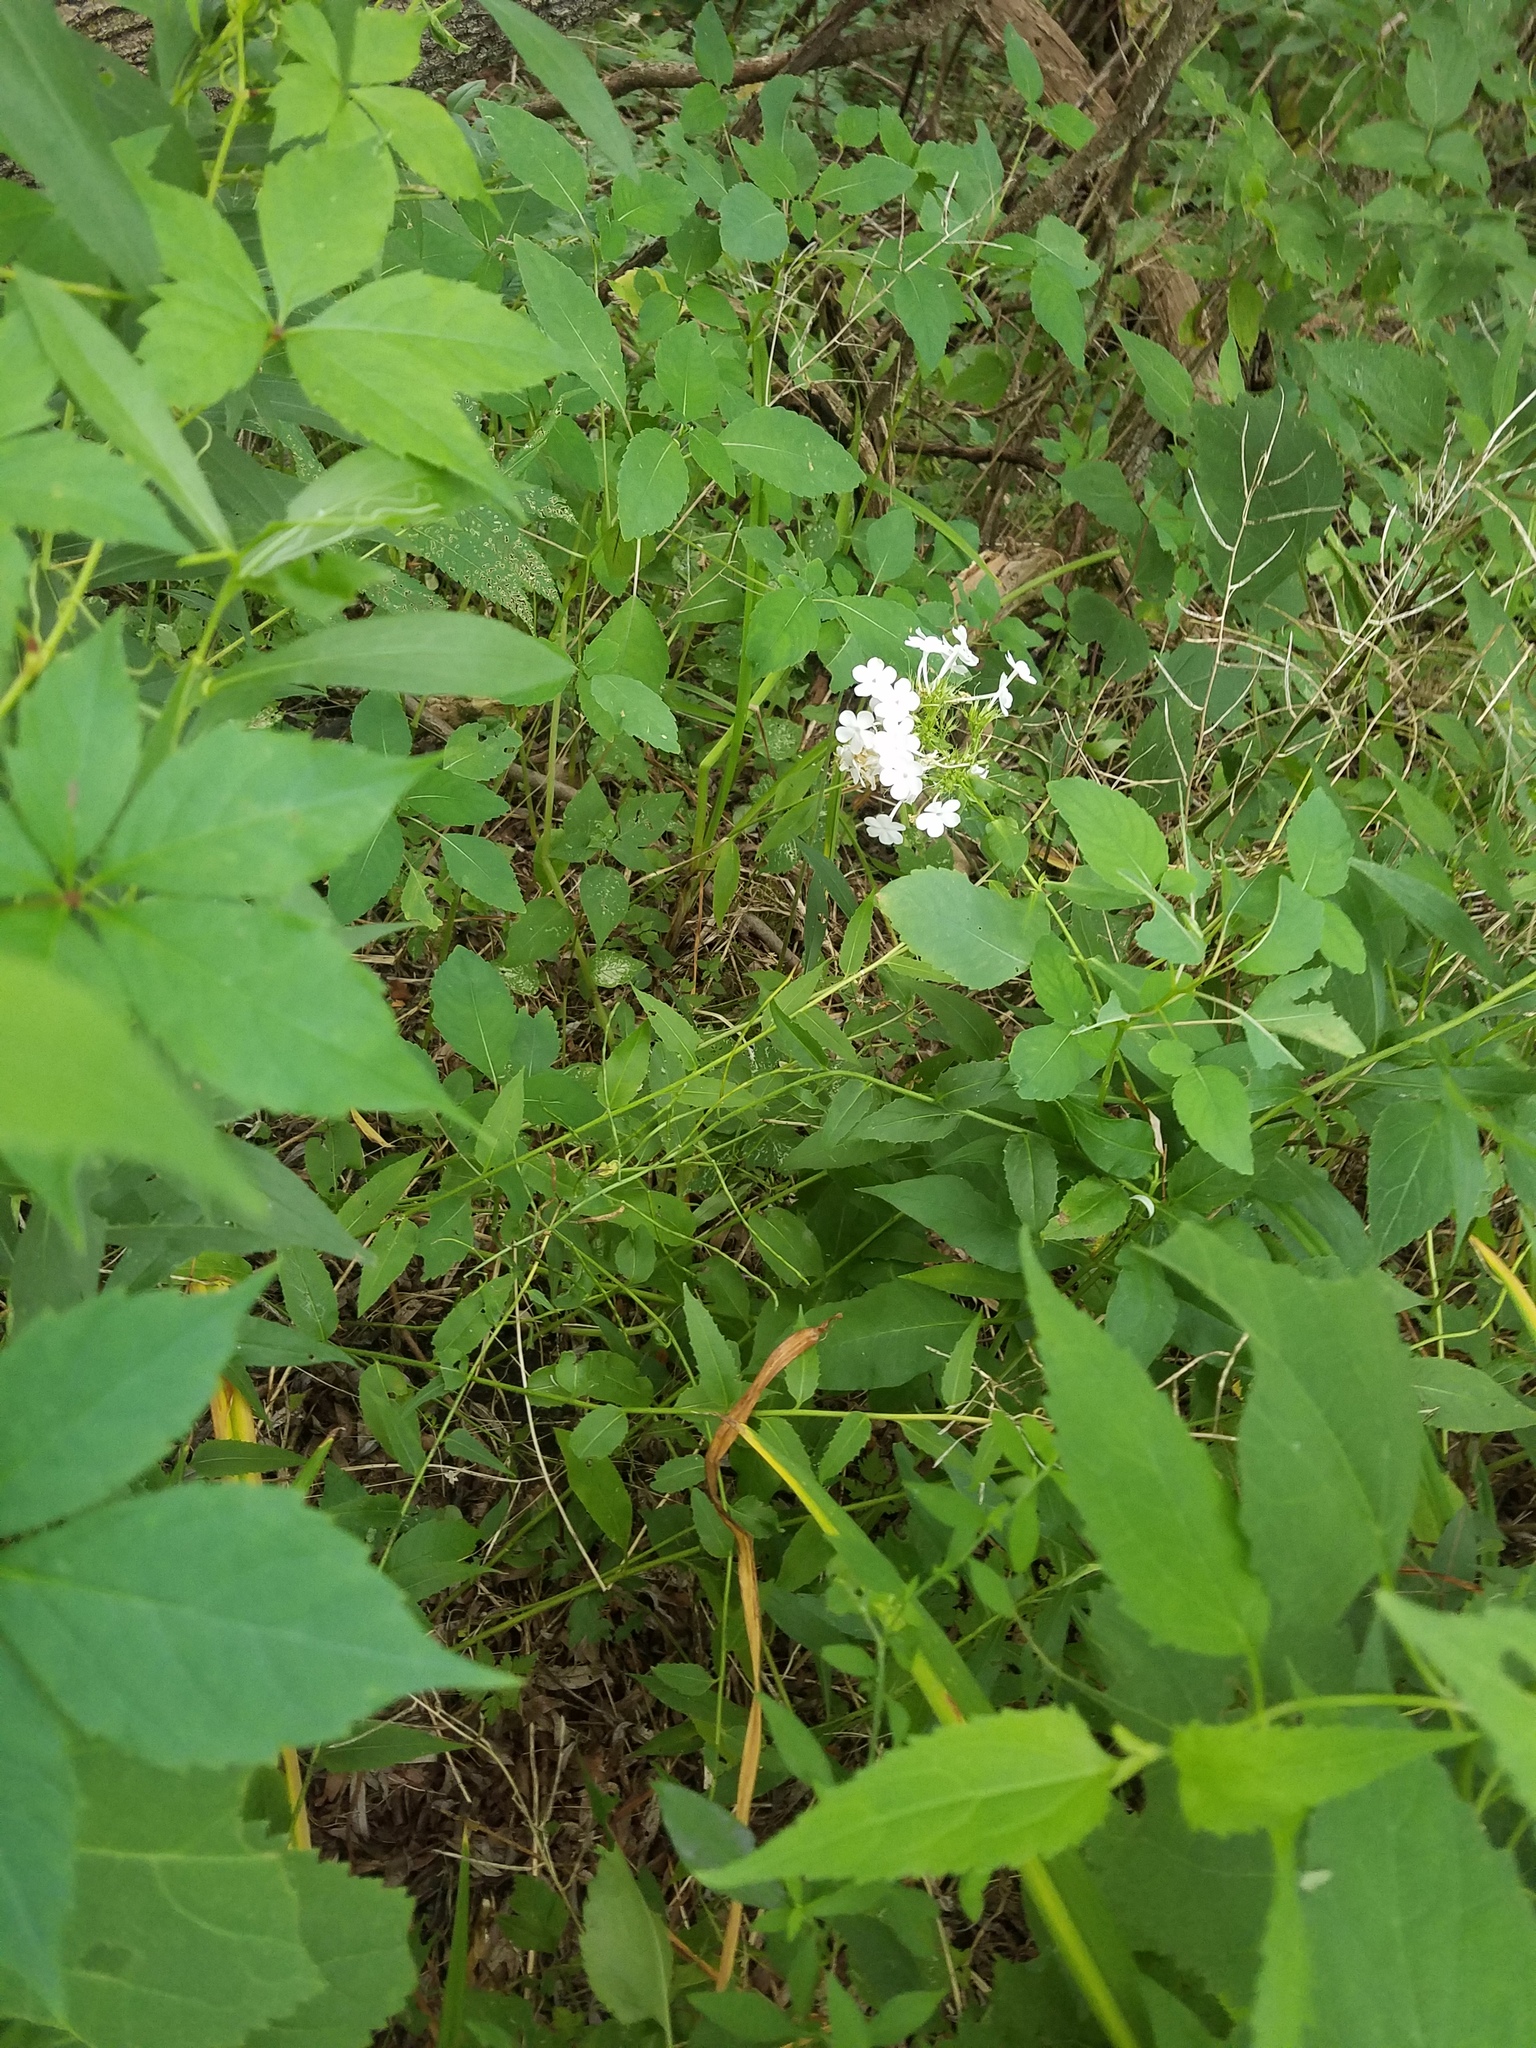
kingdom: Plantae
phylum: Tracheophyta
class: Magnoliopsida
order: Ericales
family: Polemoniaceae
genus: Phlox
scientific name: Phlox paniculata
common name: Fall phlox
